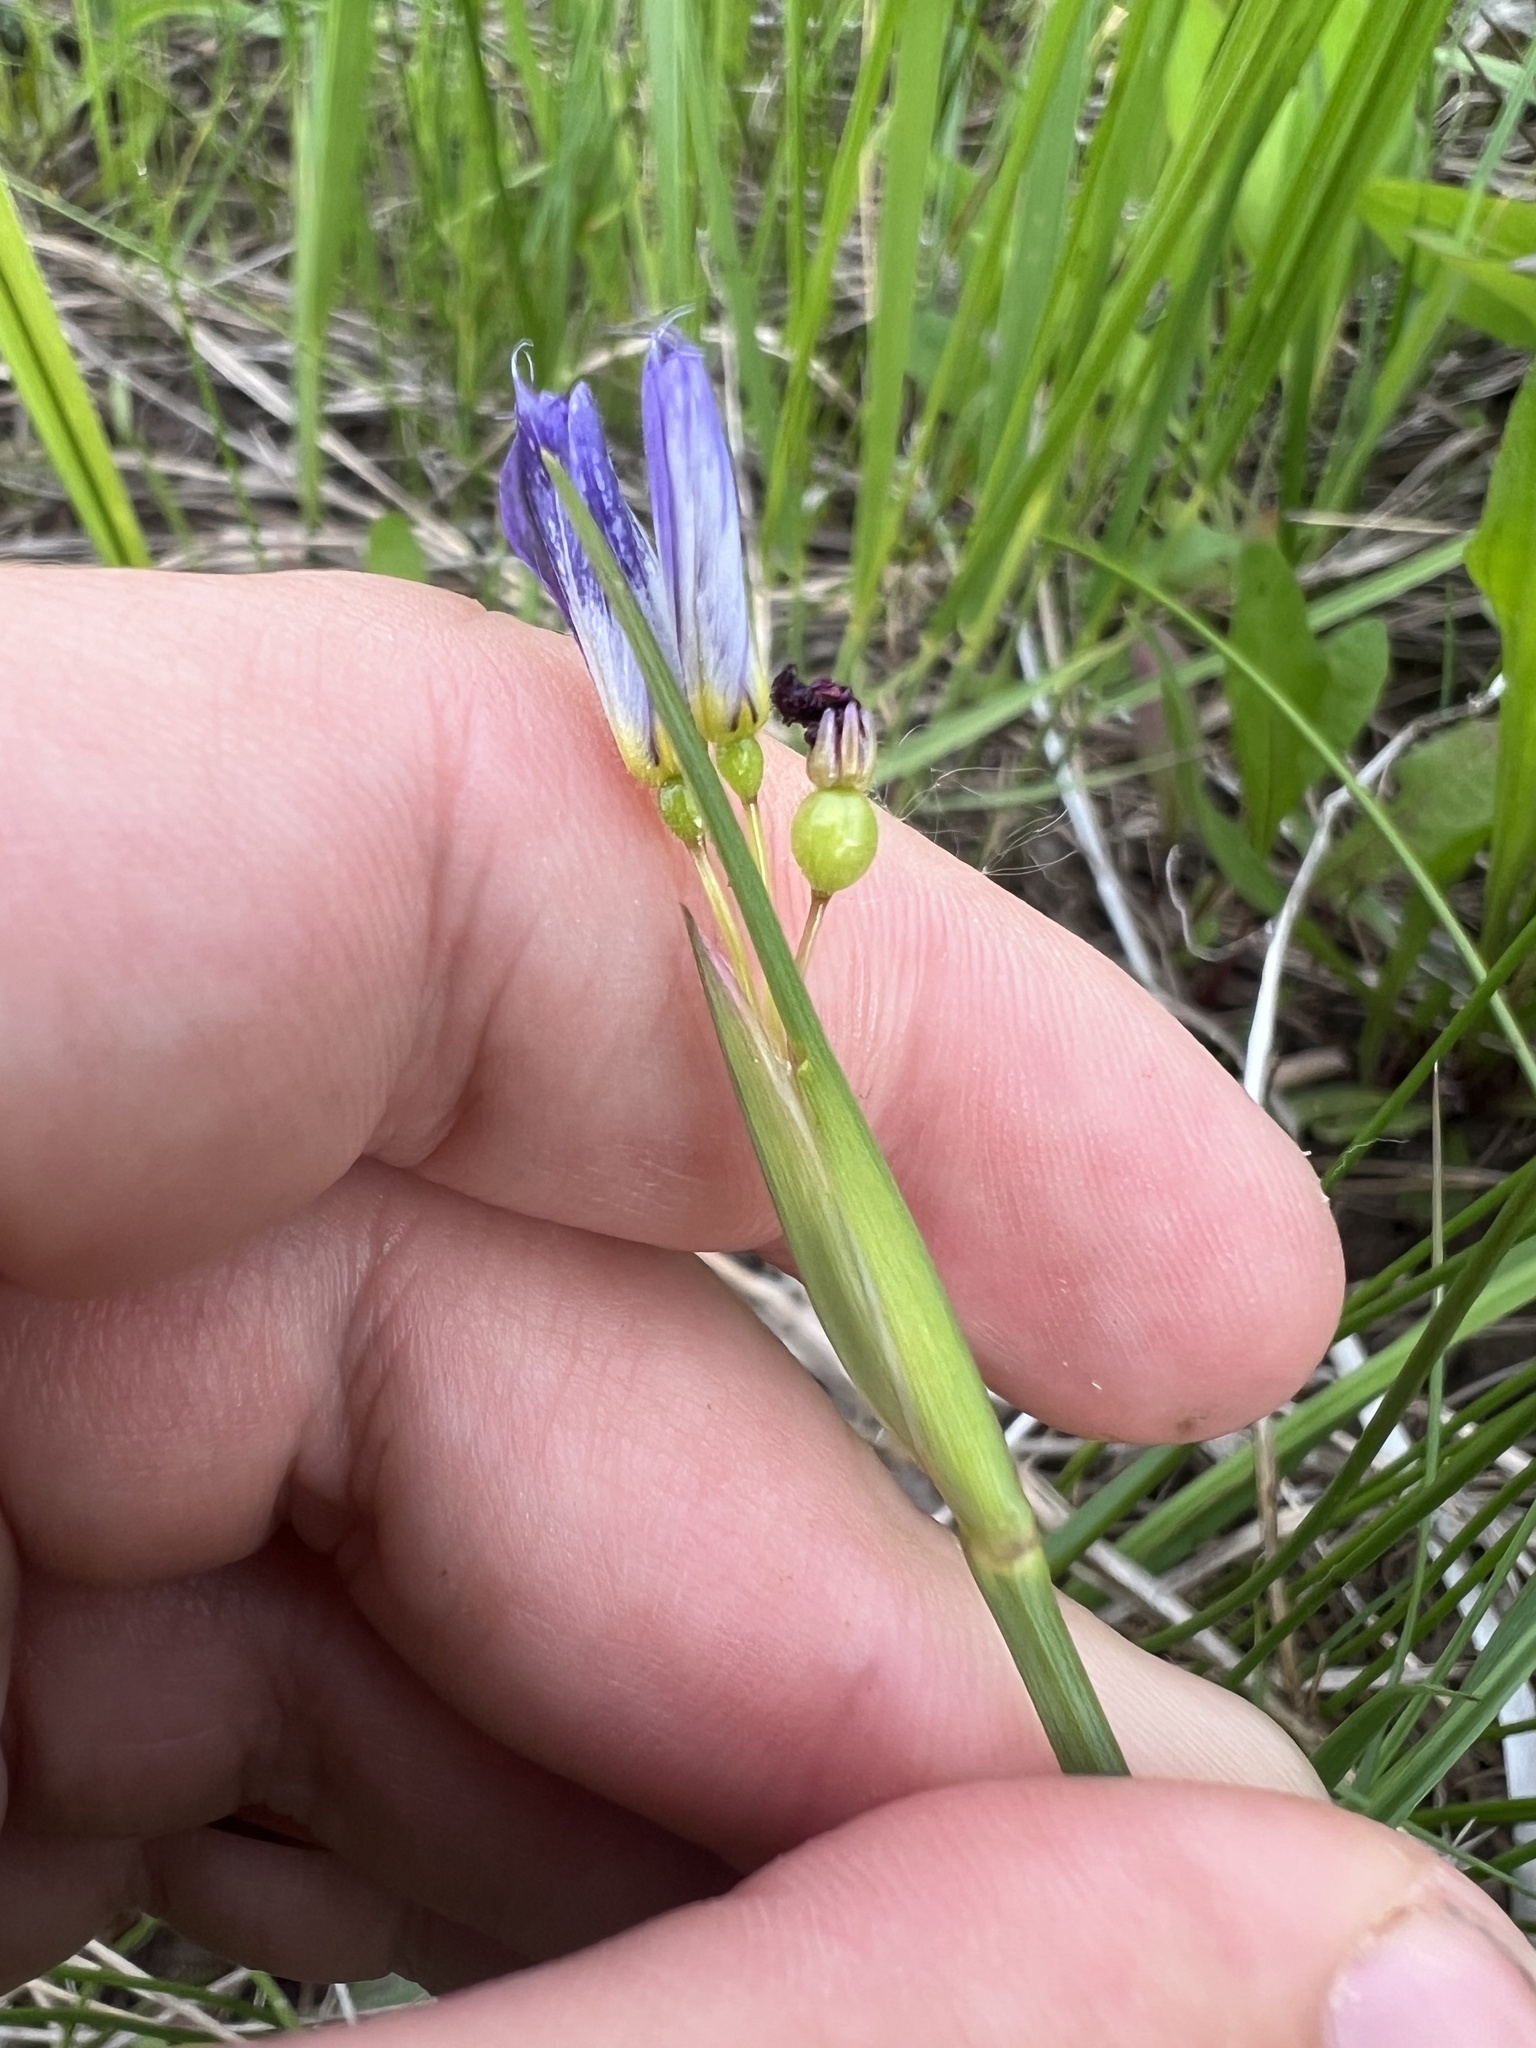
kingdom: Plantae
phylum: Tracheophyta
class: Liliopsida
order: Asparagales
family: Iridaceae
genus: Sisyrinchium
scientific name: Sisyrinchium montanum
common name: American blue-eyed-grass
